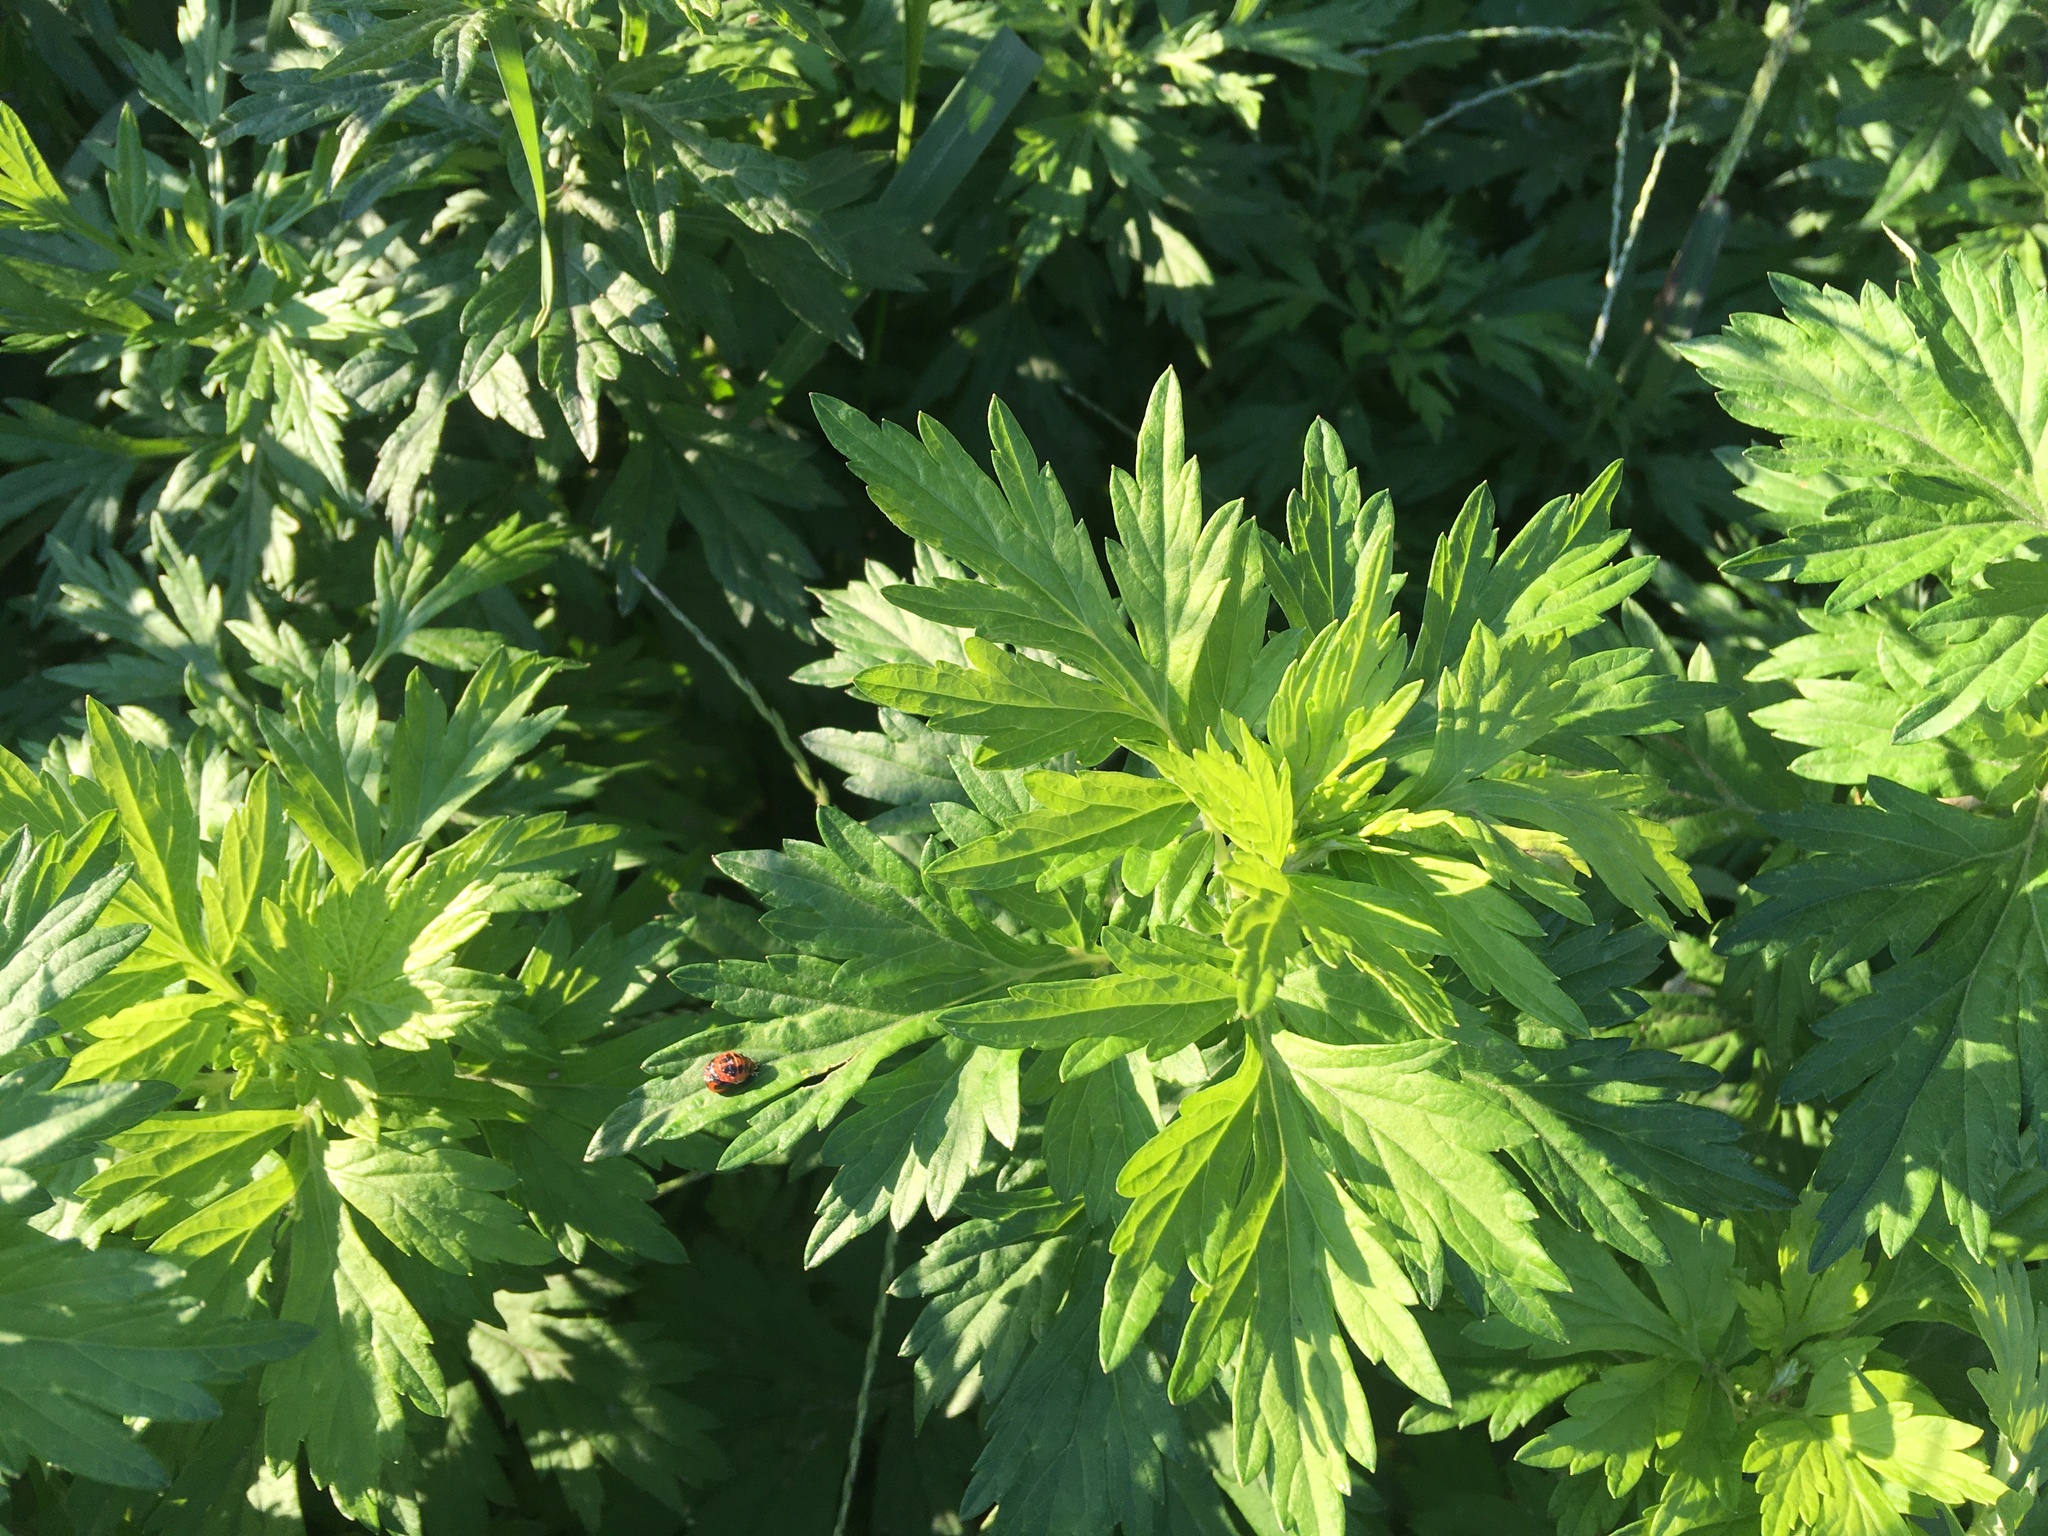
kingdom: Plantae
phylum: Tracheophyta
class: Magnoliopsida
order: Asterales
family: Asteraceae
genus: Artemisia
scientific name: Artemisia vulgaris
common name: Mugwort
